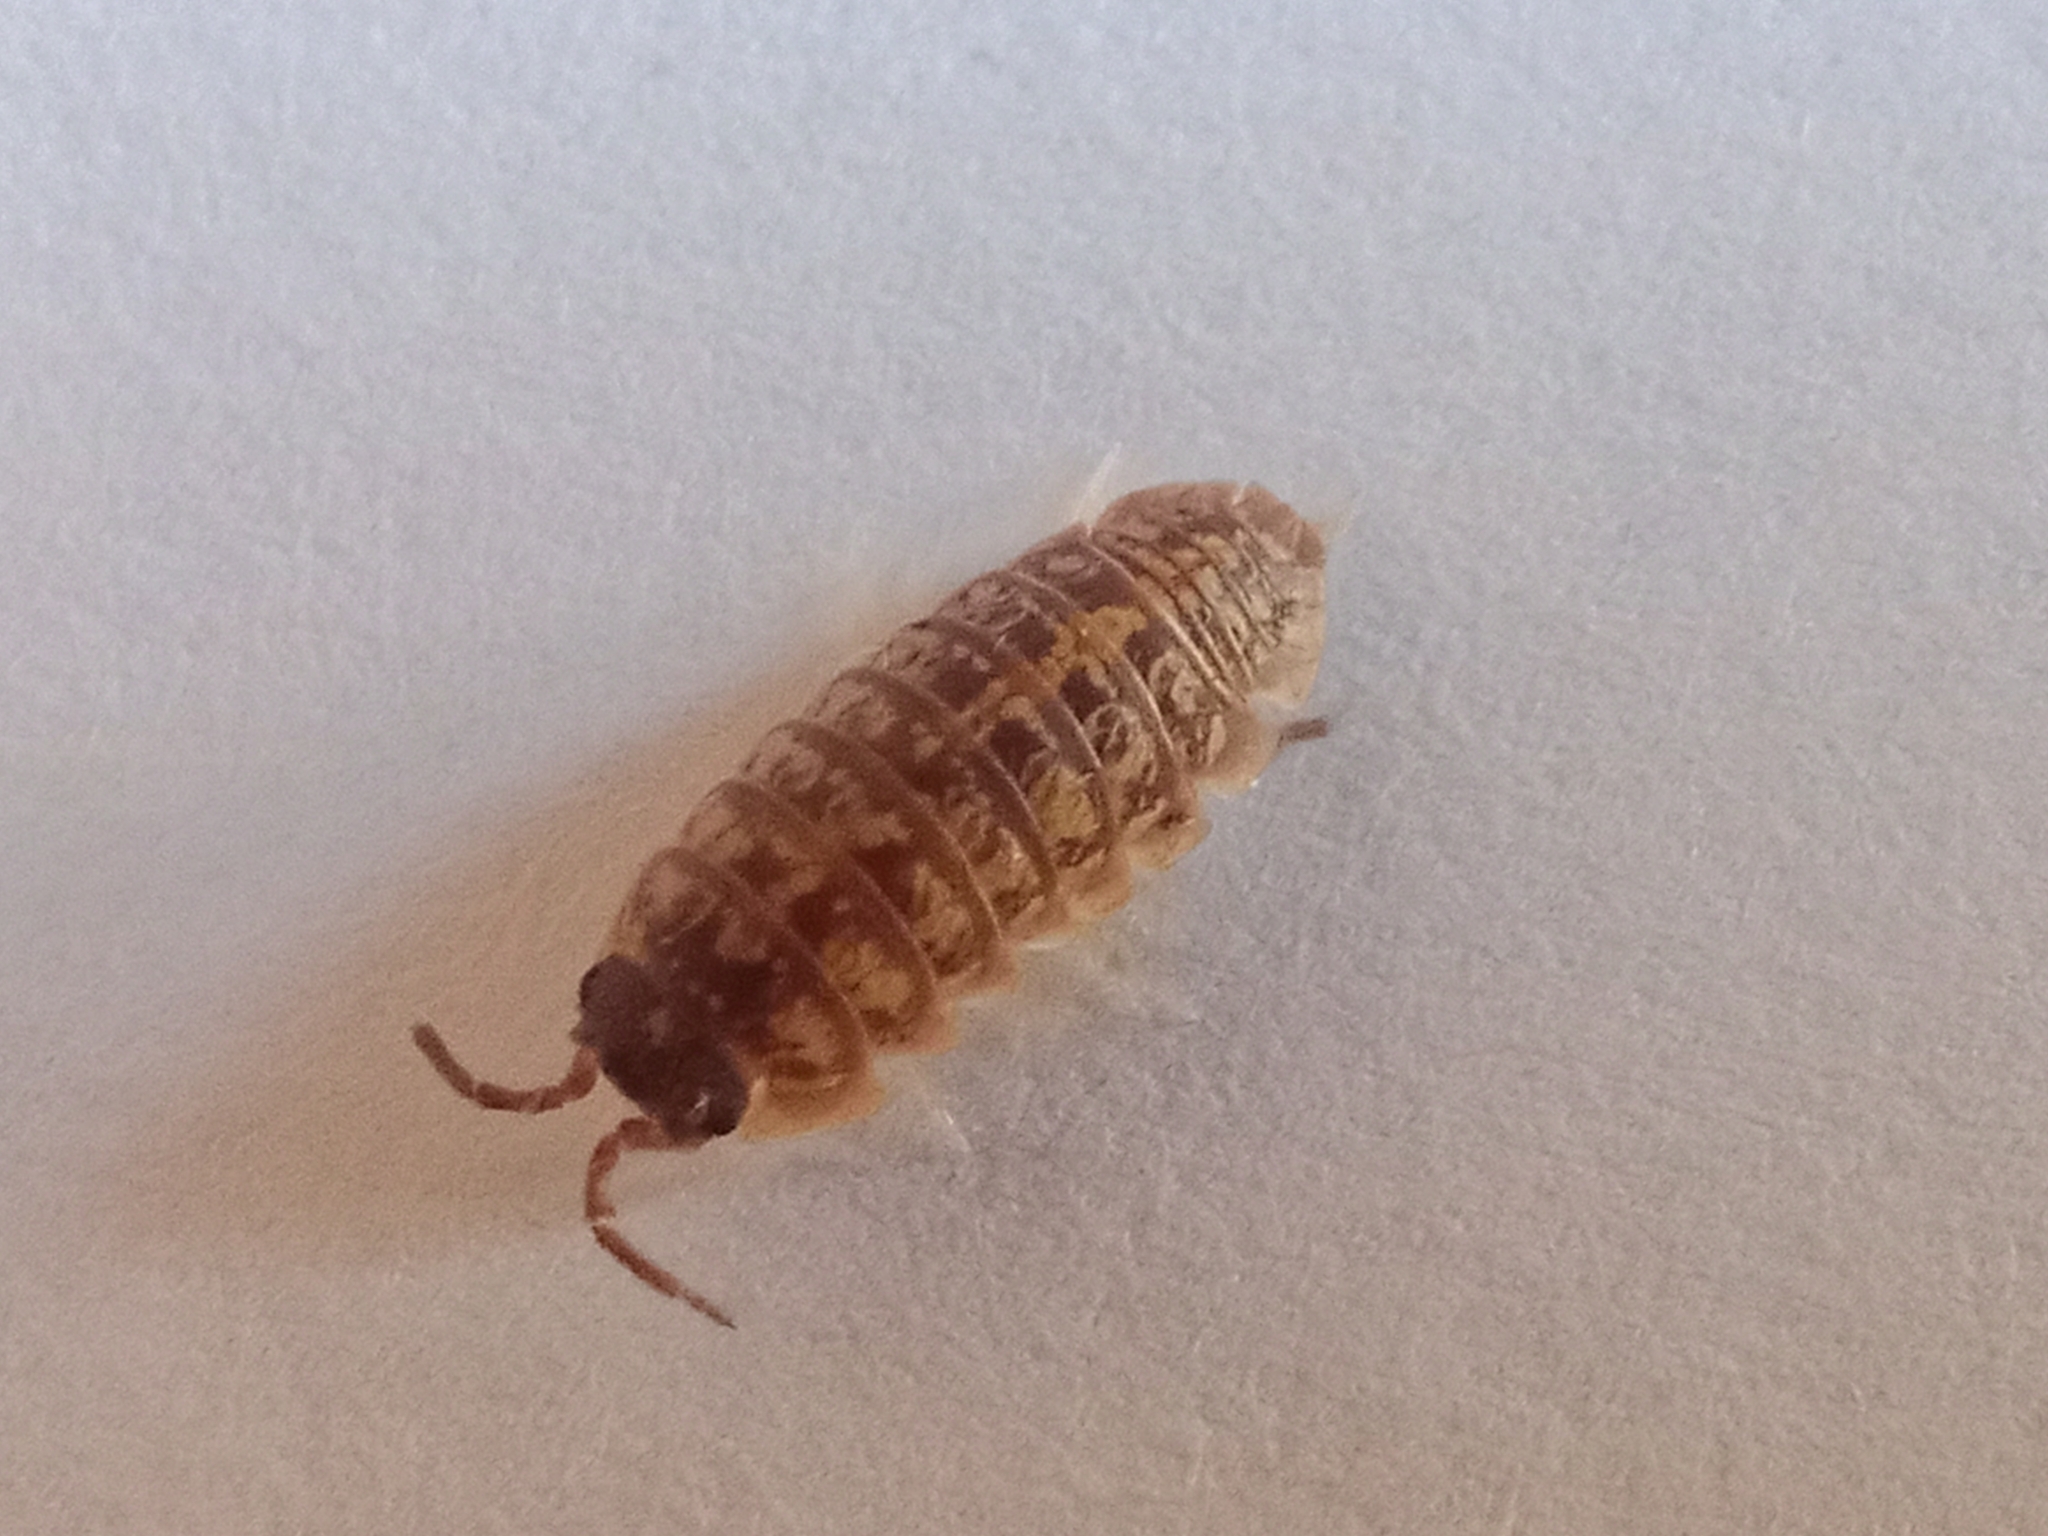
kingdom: Animalia
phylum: Arthropoda
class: Malacostraca
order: Isopoda
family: Armadillidiidae
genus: Armadillidium
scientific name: Armadillidium versicolor
